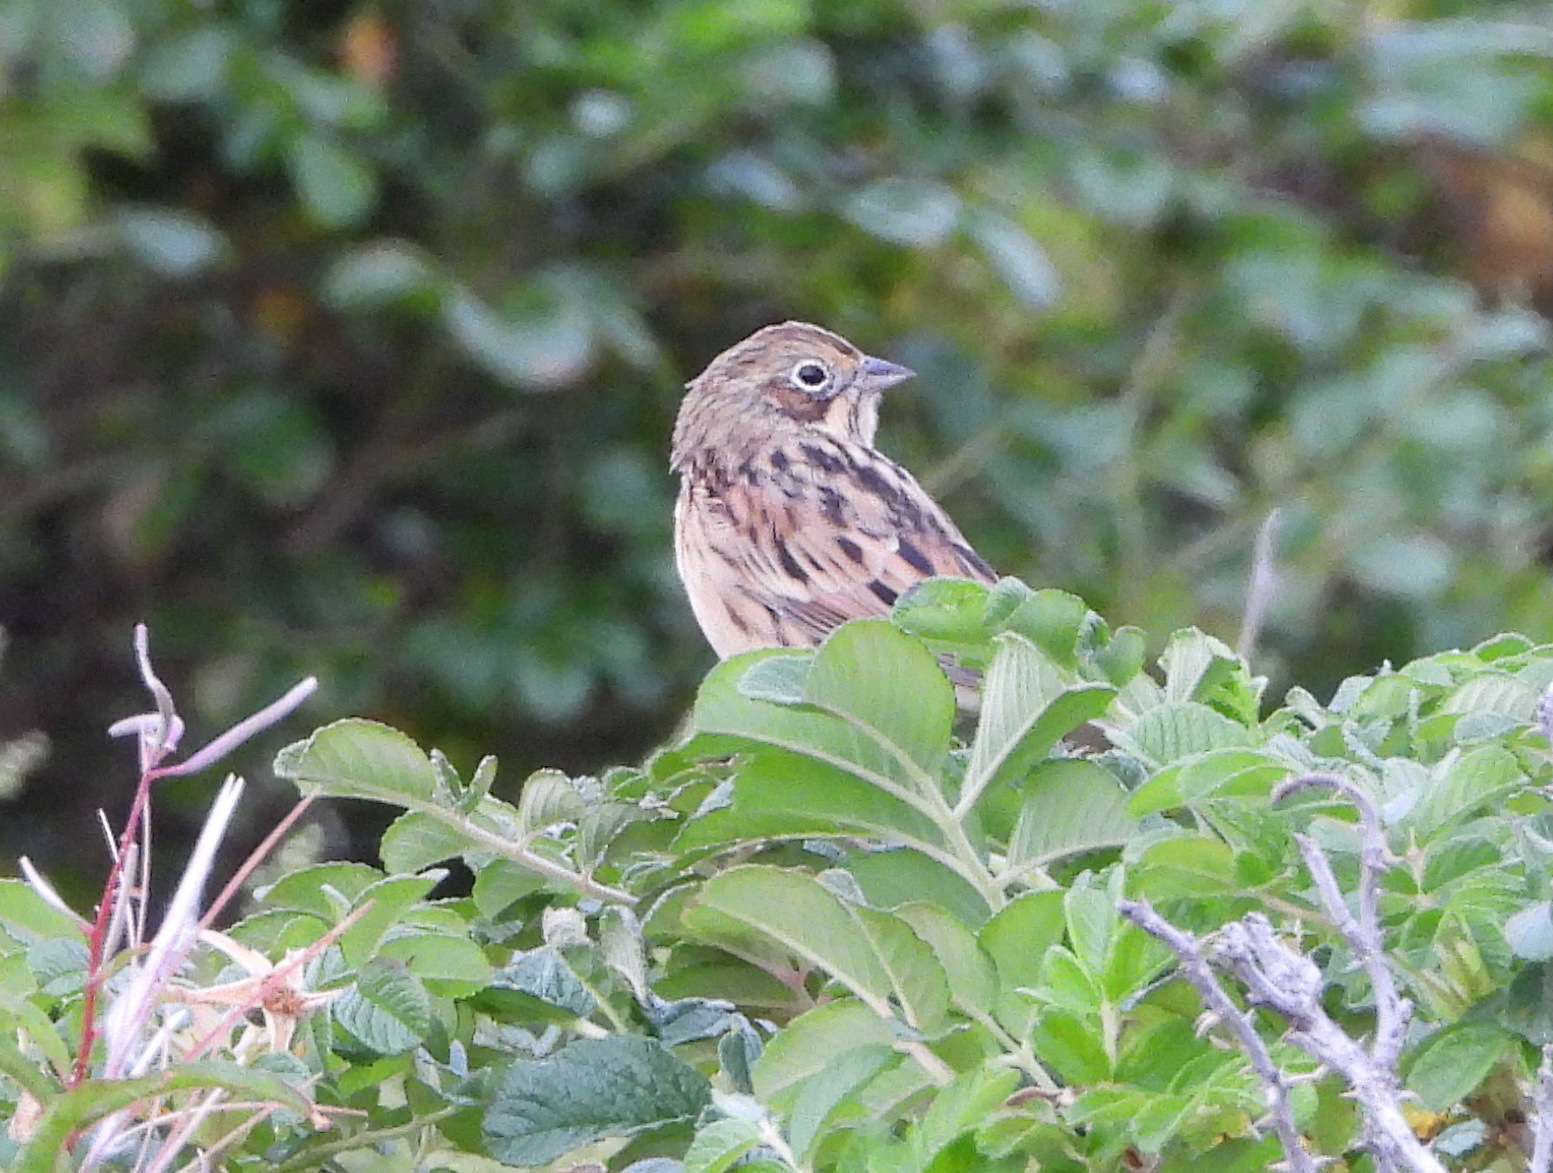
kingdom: Animalia
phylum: Chordata
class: Aves
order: Passeriformes
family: Emberizidae
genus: Emberiza
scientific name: Emberiza fucata
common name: Chestnut-eared bunting
